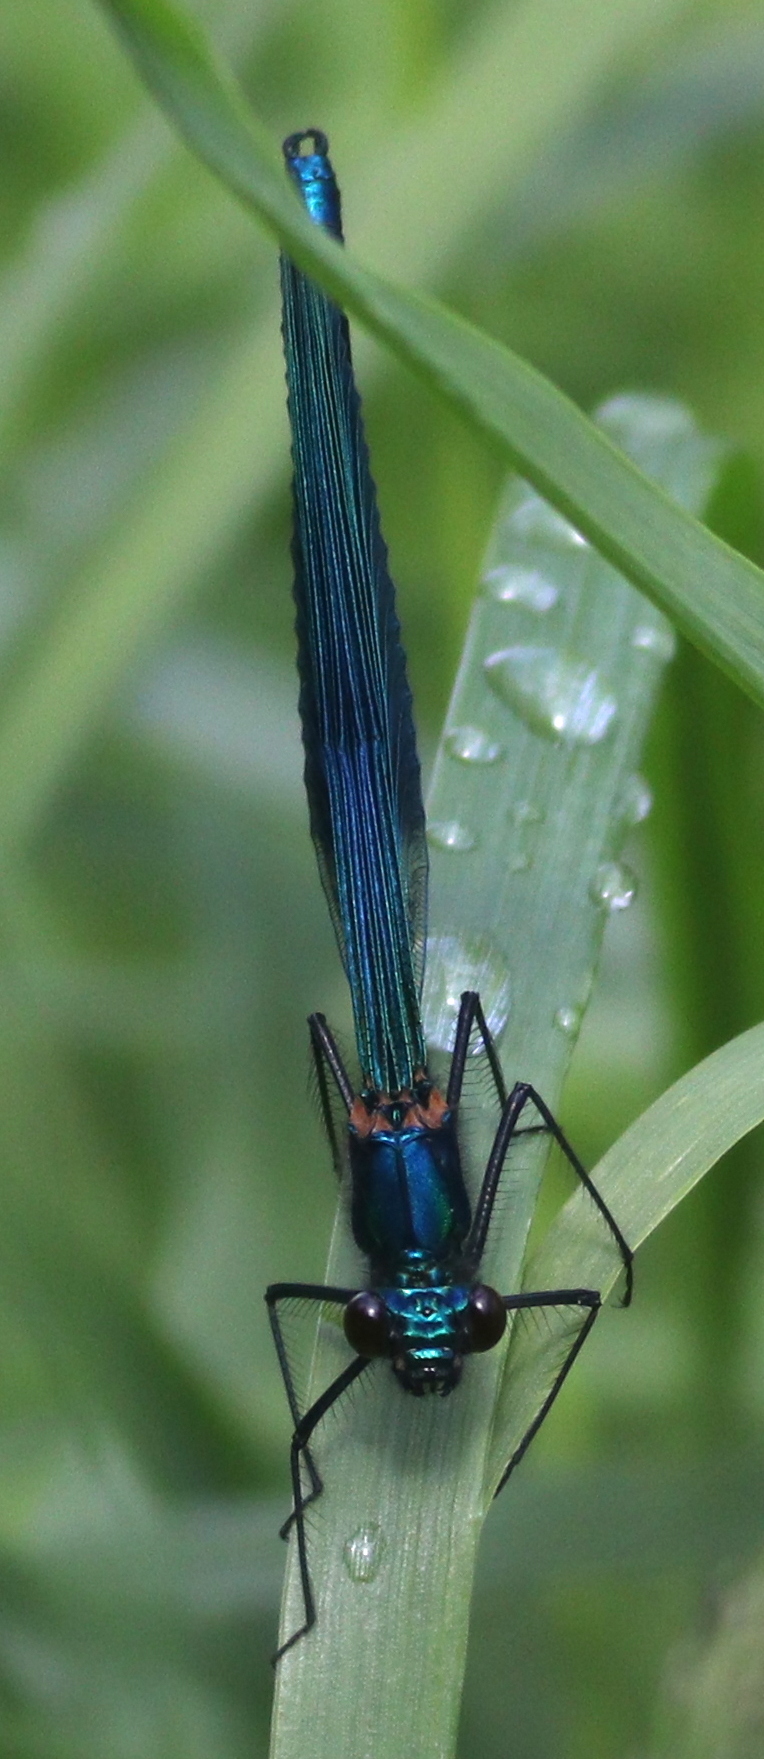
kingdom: Animalia
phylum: Arthropoda
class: Insecta
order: Odonata
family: Calopterygidae
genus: Calopteryx
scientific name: Calopteryx splendens
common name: Banded demoiselle
